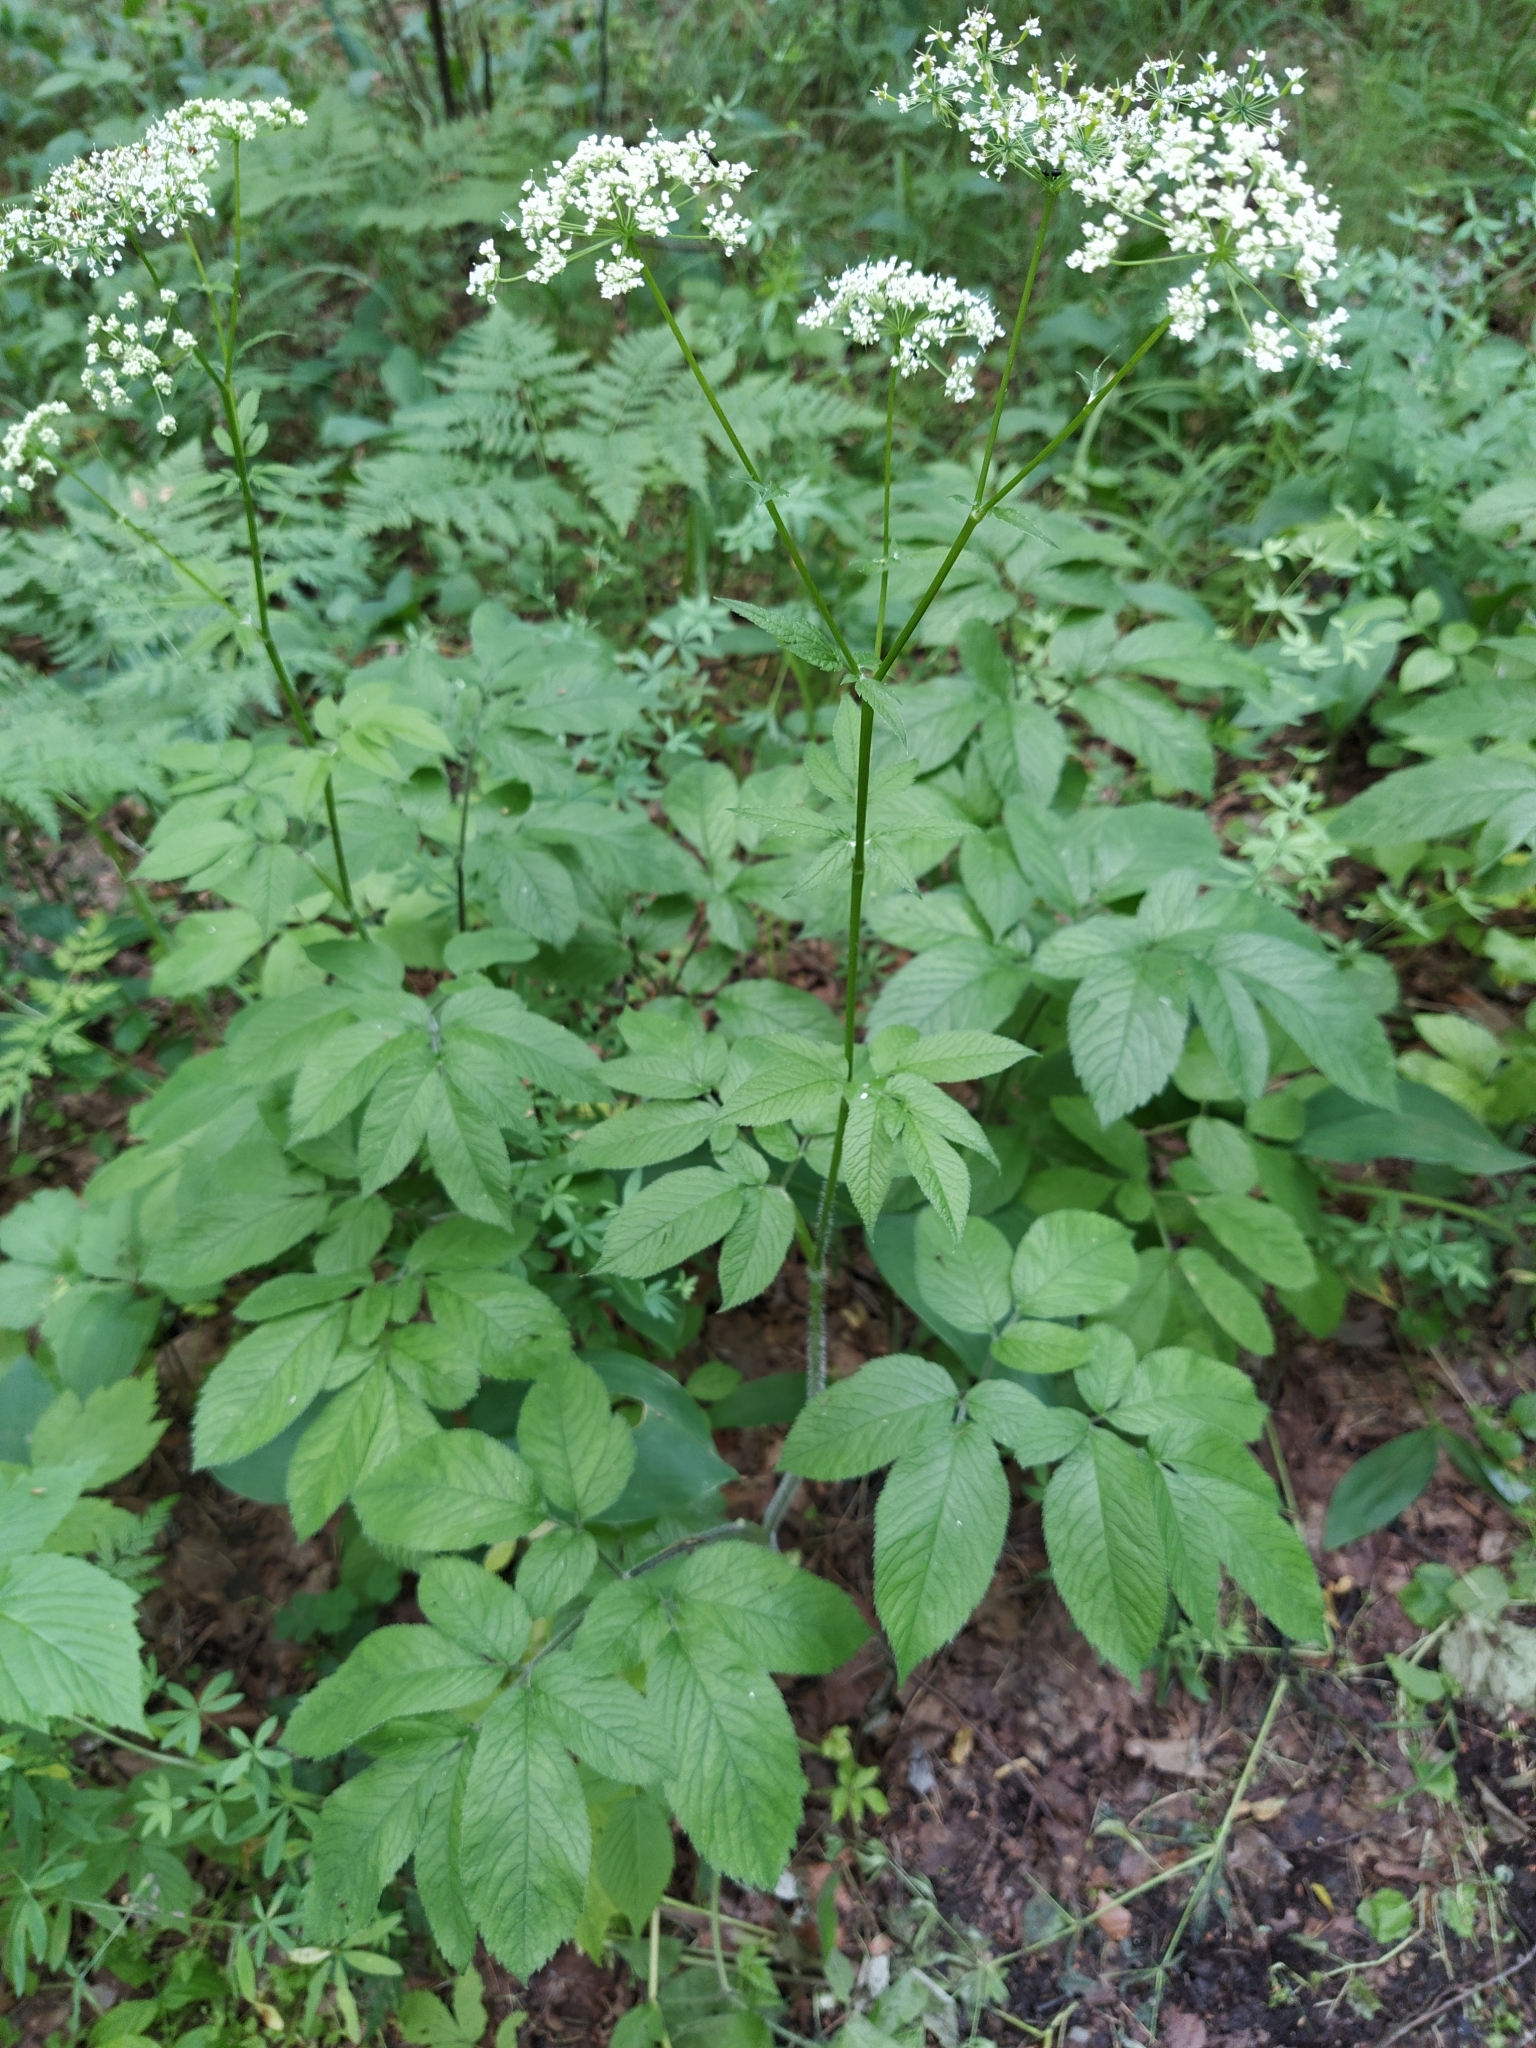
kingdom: Plantae
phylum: Tracheophyta
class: Magnoliopsida
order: Apiales
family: Apiaceae
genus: Chaerophyllum
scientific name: Chaerophyllum aromaticum
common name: Broadleaf chervil
